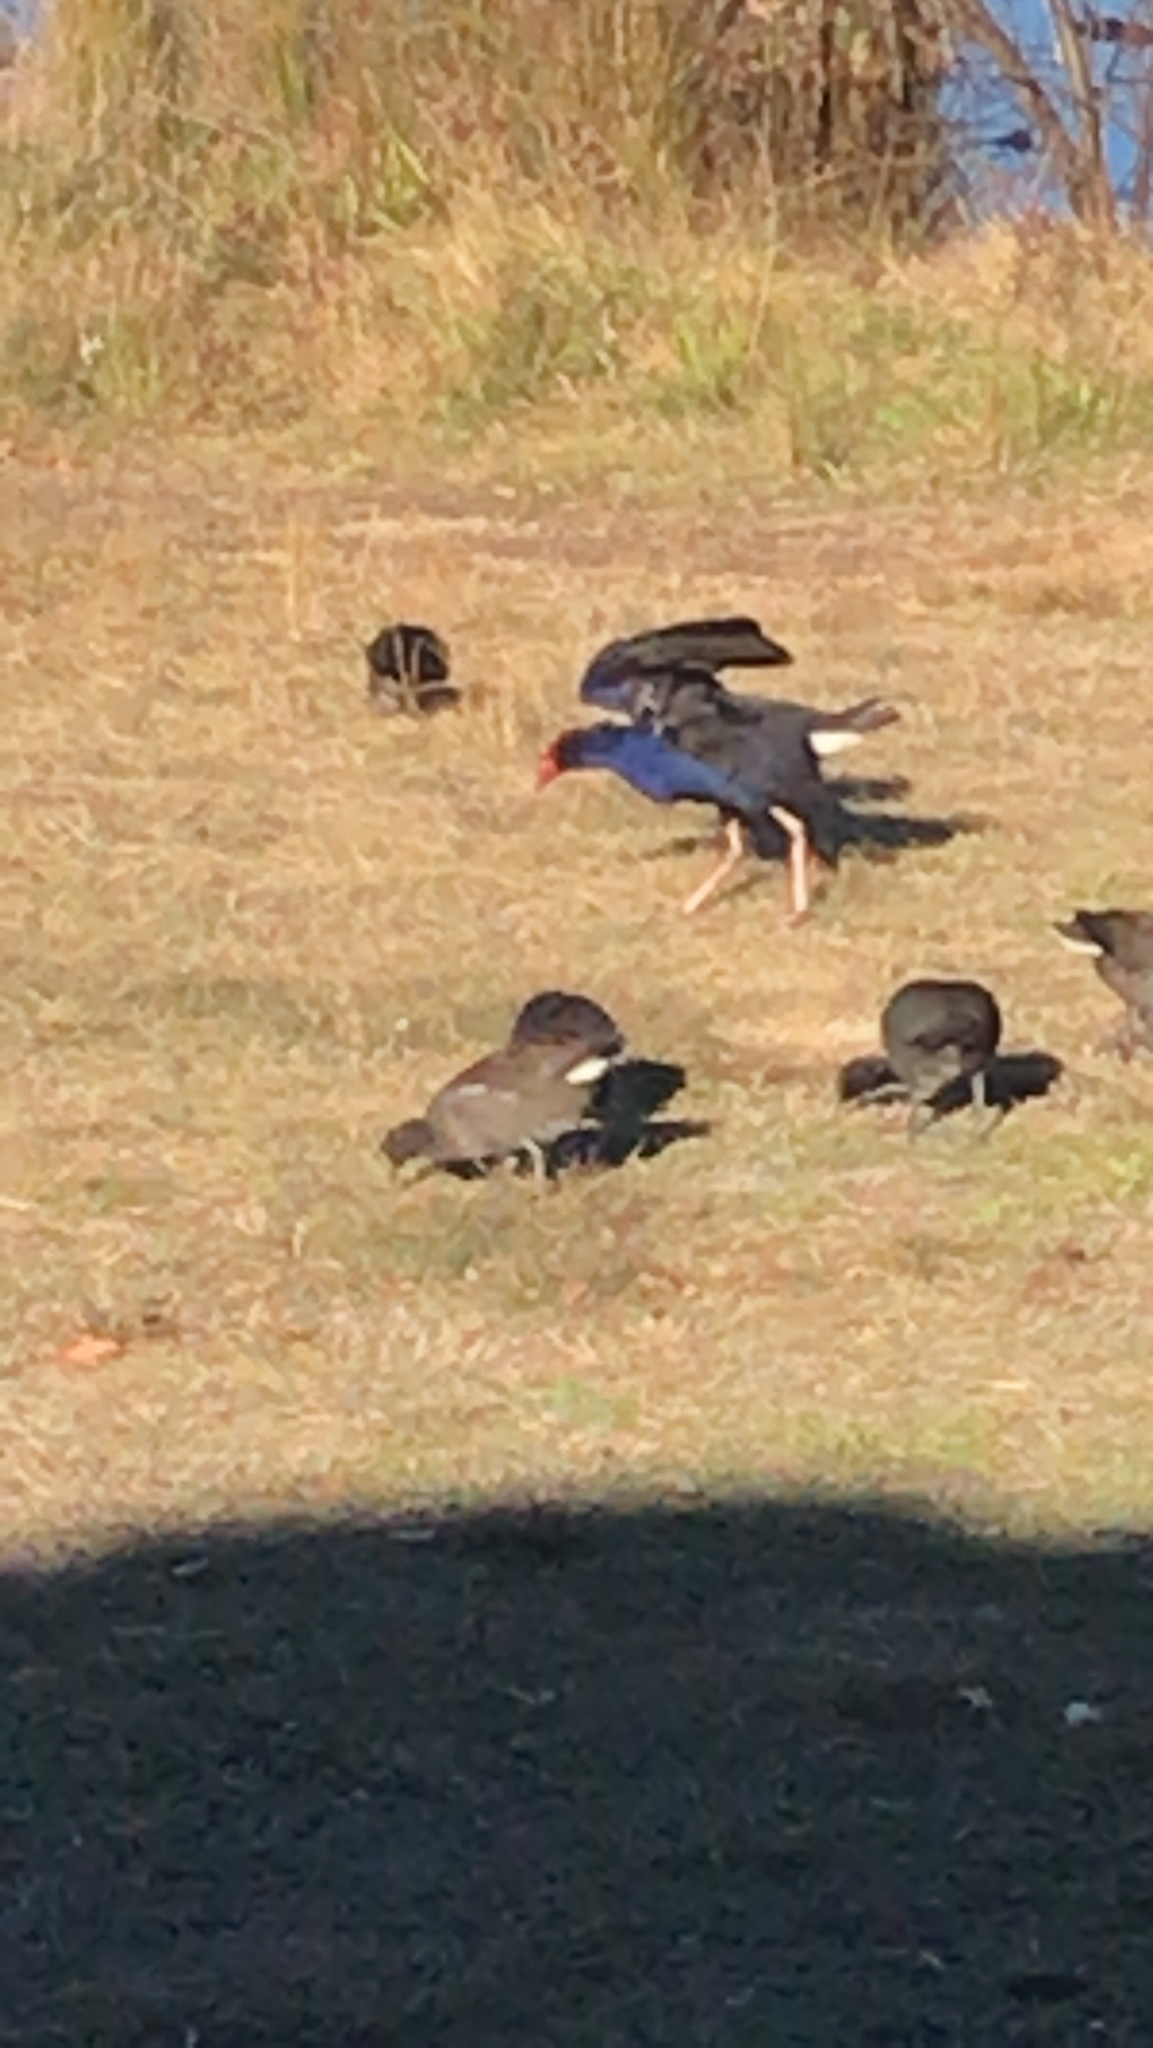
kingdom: Animalia
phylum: Chordata
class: Aves
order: Gruiformes
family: Rallidae
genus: Porphyrio
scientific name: Porphyrio melanotus
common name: Australasian swamphen
